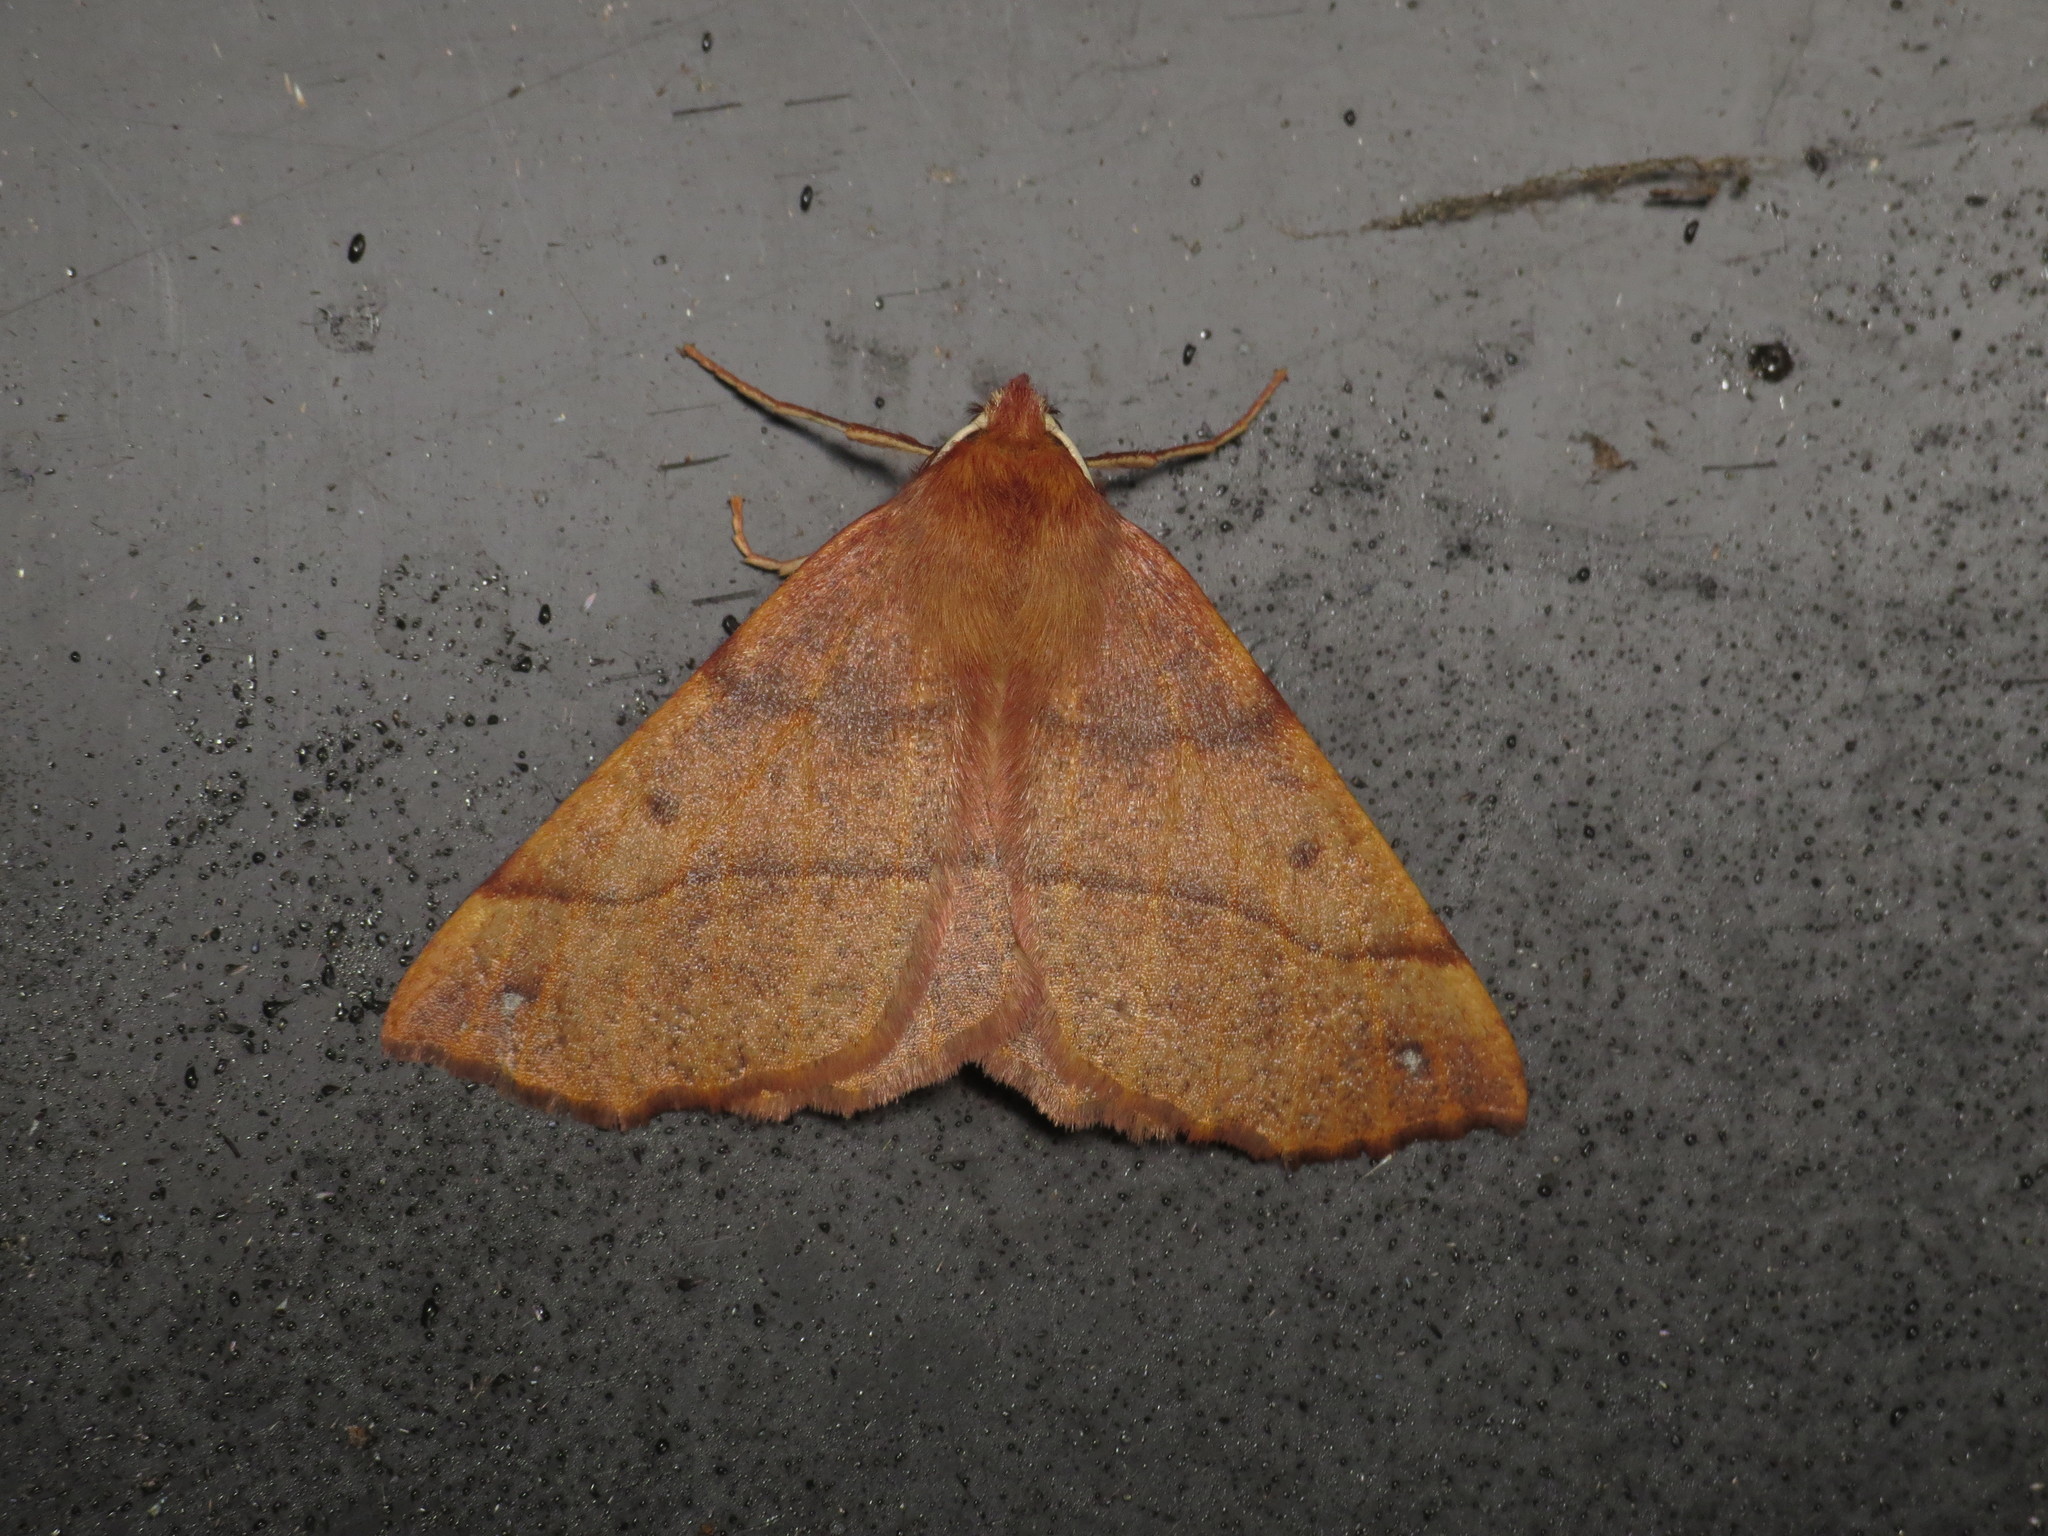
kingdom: Animalia
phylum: Arthropoda
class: Insecta
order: Lepidoptera
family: Geometridae
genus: Colotois
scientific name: Colotois pennaria
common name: Feathered thorn
